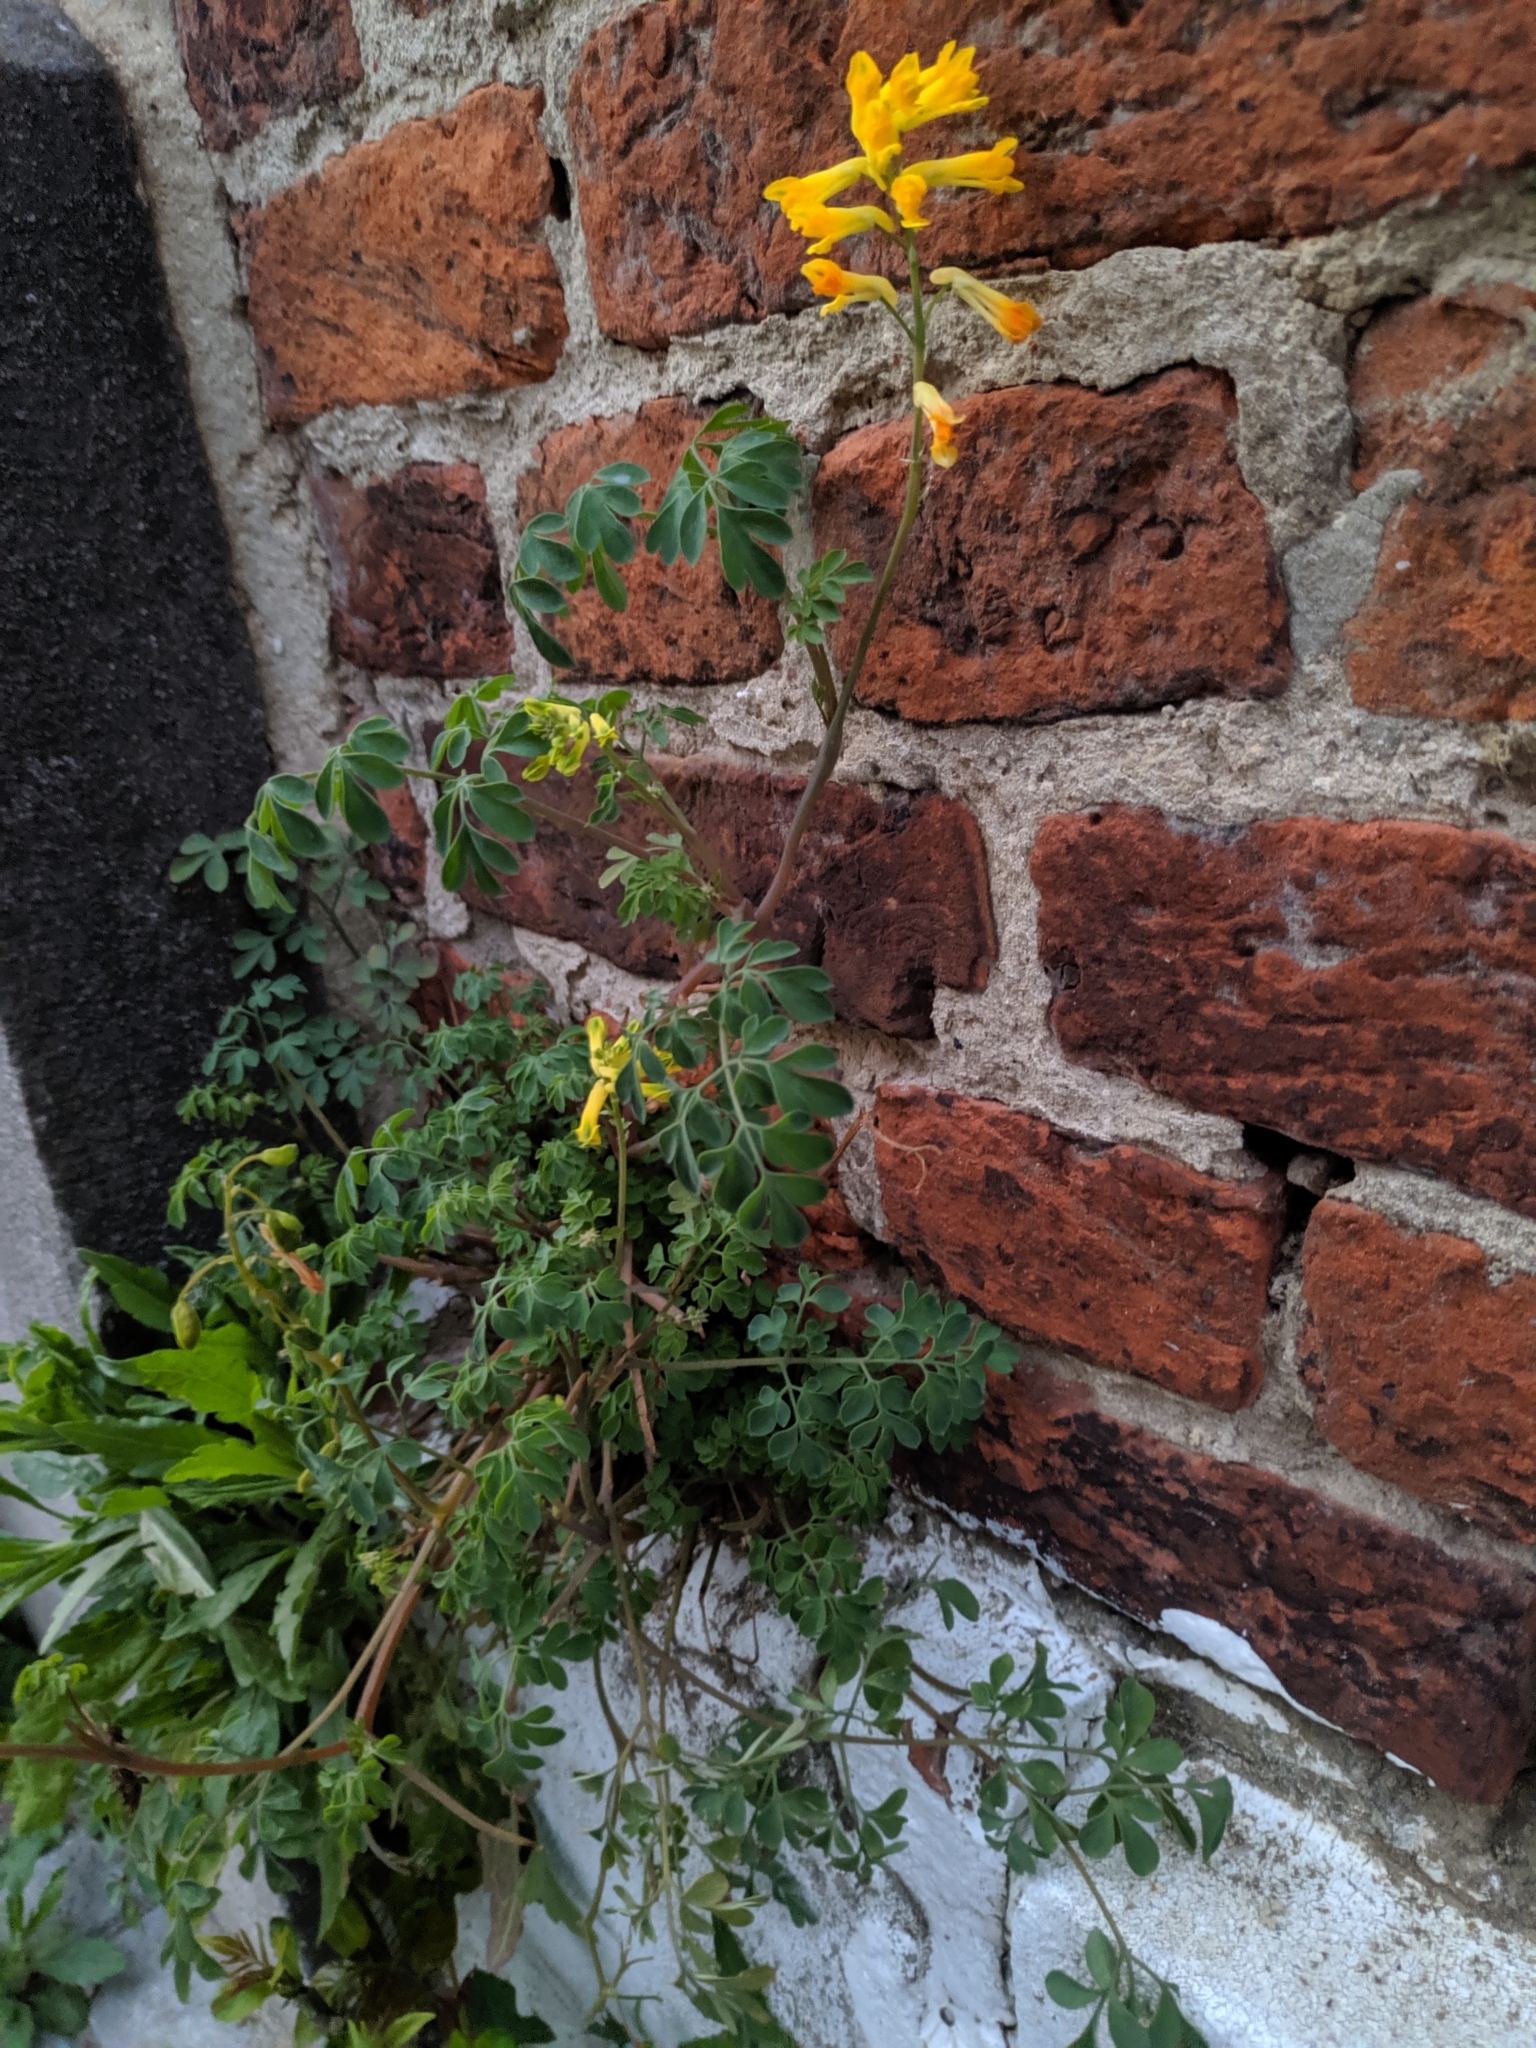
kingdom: Plantae
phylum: Tracheophyta
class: Magnoliopsida
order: Ranunculales
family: Papaveraceae
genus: Pseudofumaria
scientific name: Pseudofumaria lutea
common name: Yellow corydalis
